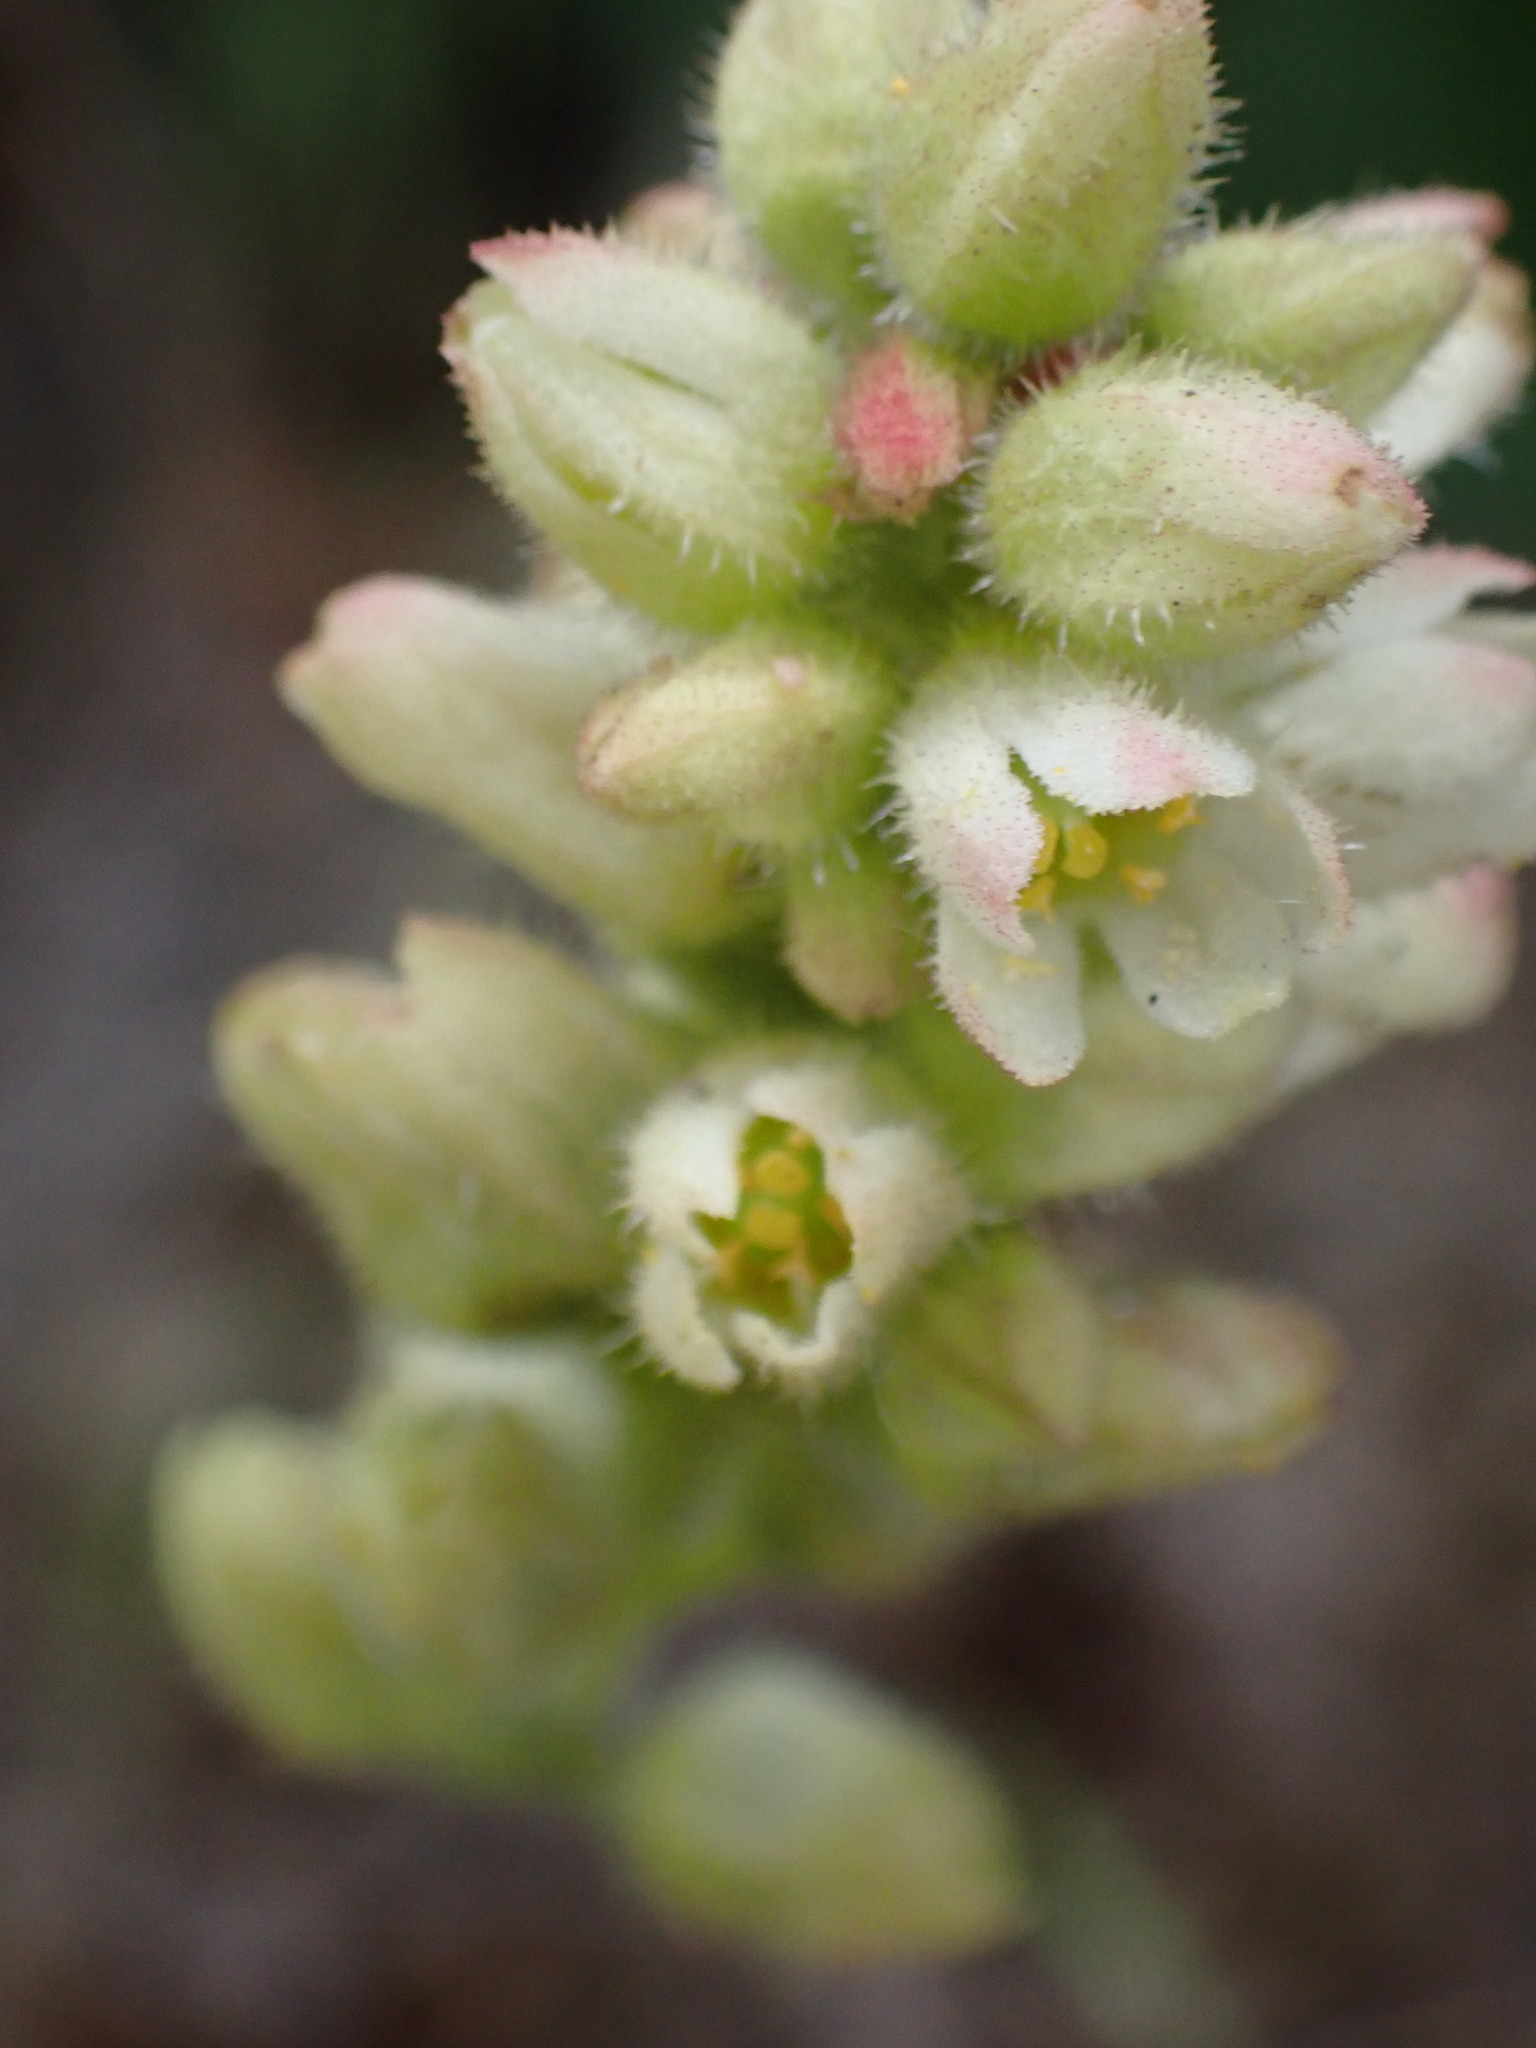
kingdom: Plantae
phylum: Tracheophyta
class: Magnoliopsida
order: Saxifragales
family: Saxifragaceae
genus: Heuchera
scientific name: Heuchera cylindrica
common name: Mat alumroot
